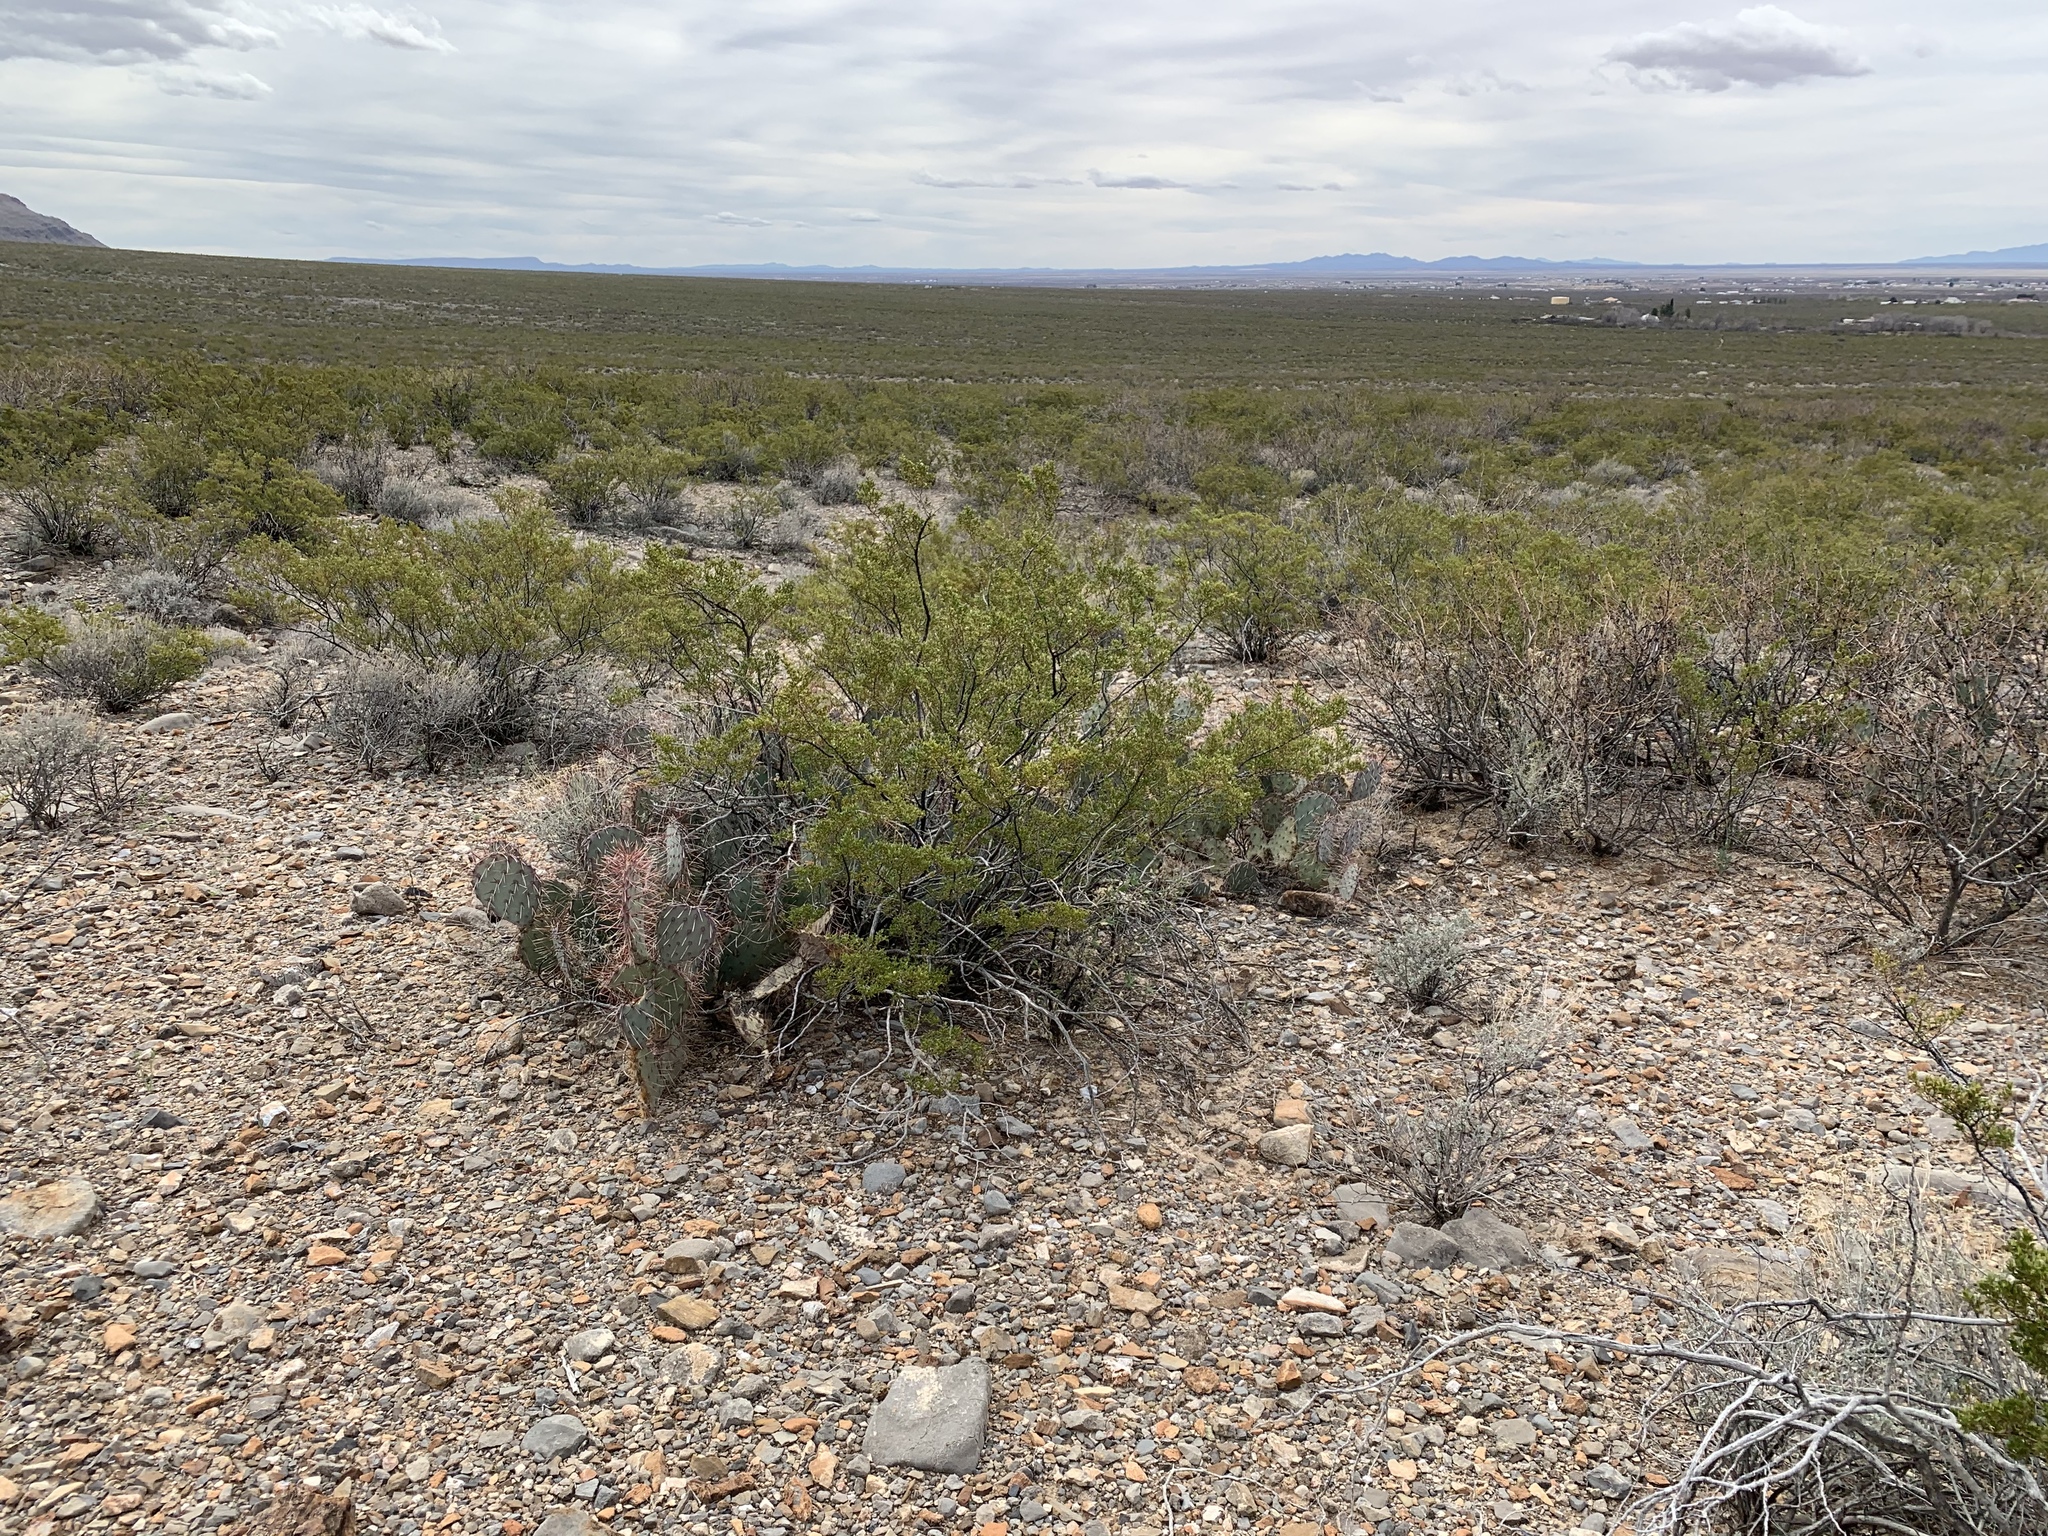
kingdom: Plantae
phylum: Tracheophyta
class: Magnoliopsida
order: Zygophyllales
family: Zygophyllaceae
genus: Larrea
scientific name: Larrea tridentata
